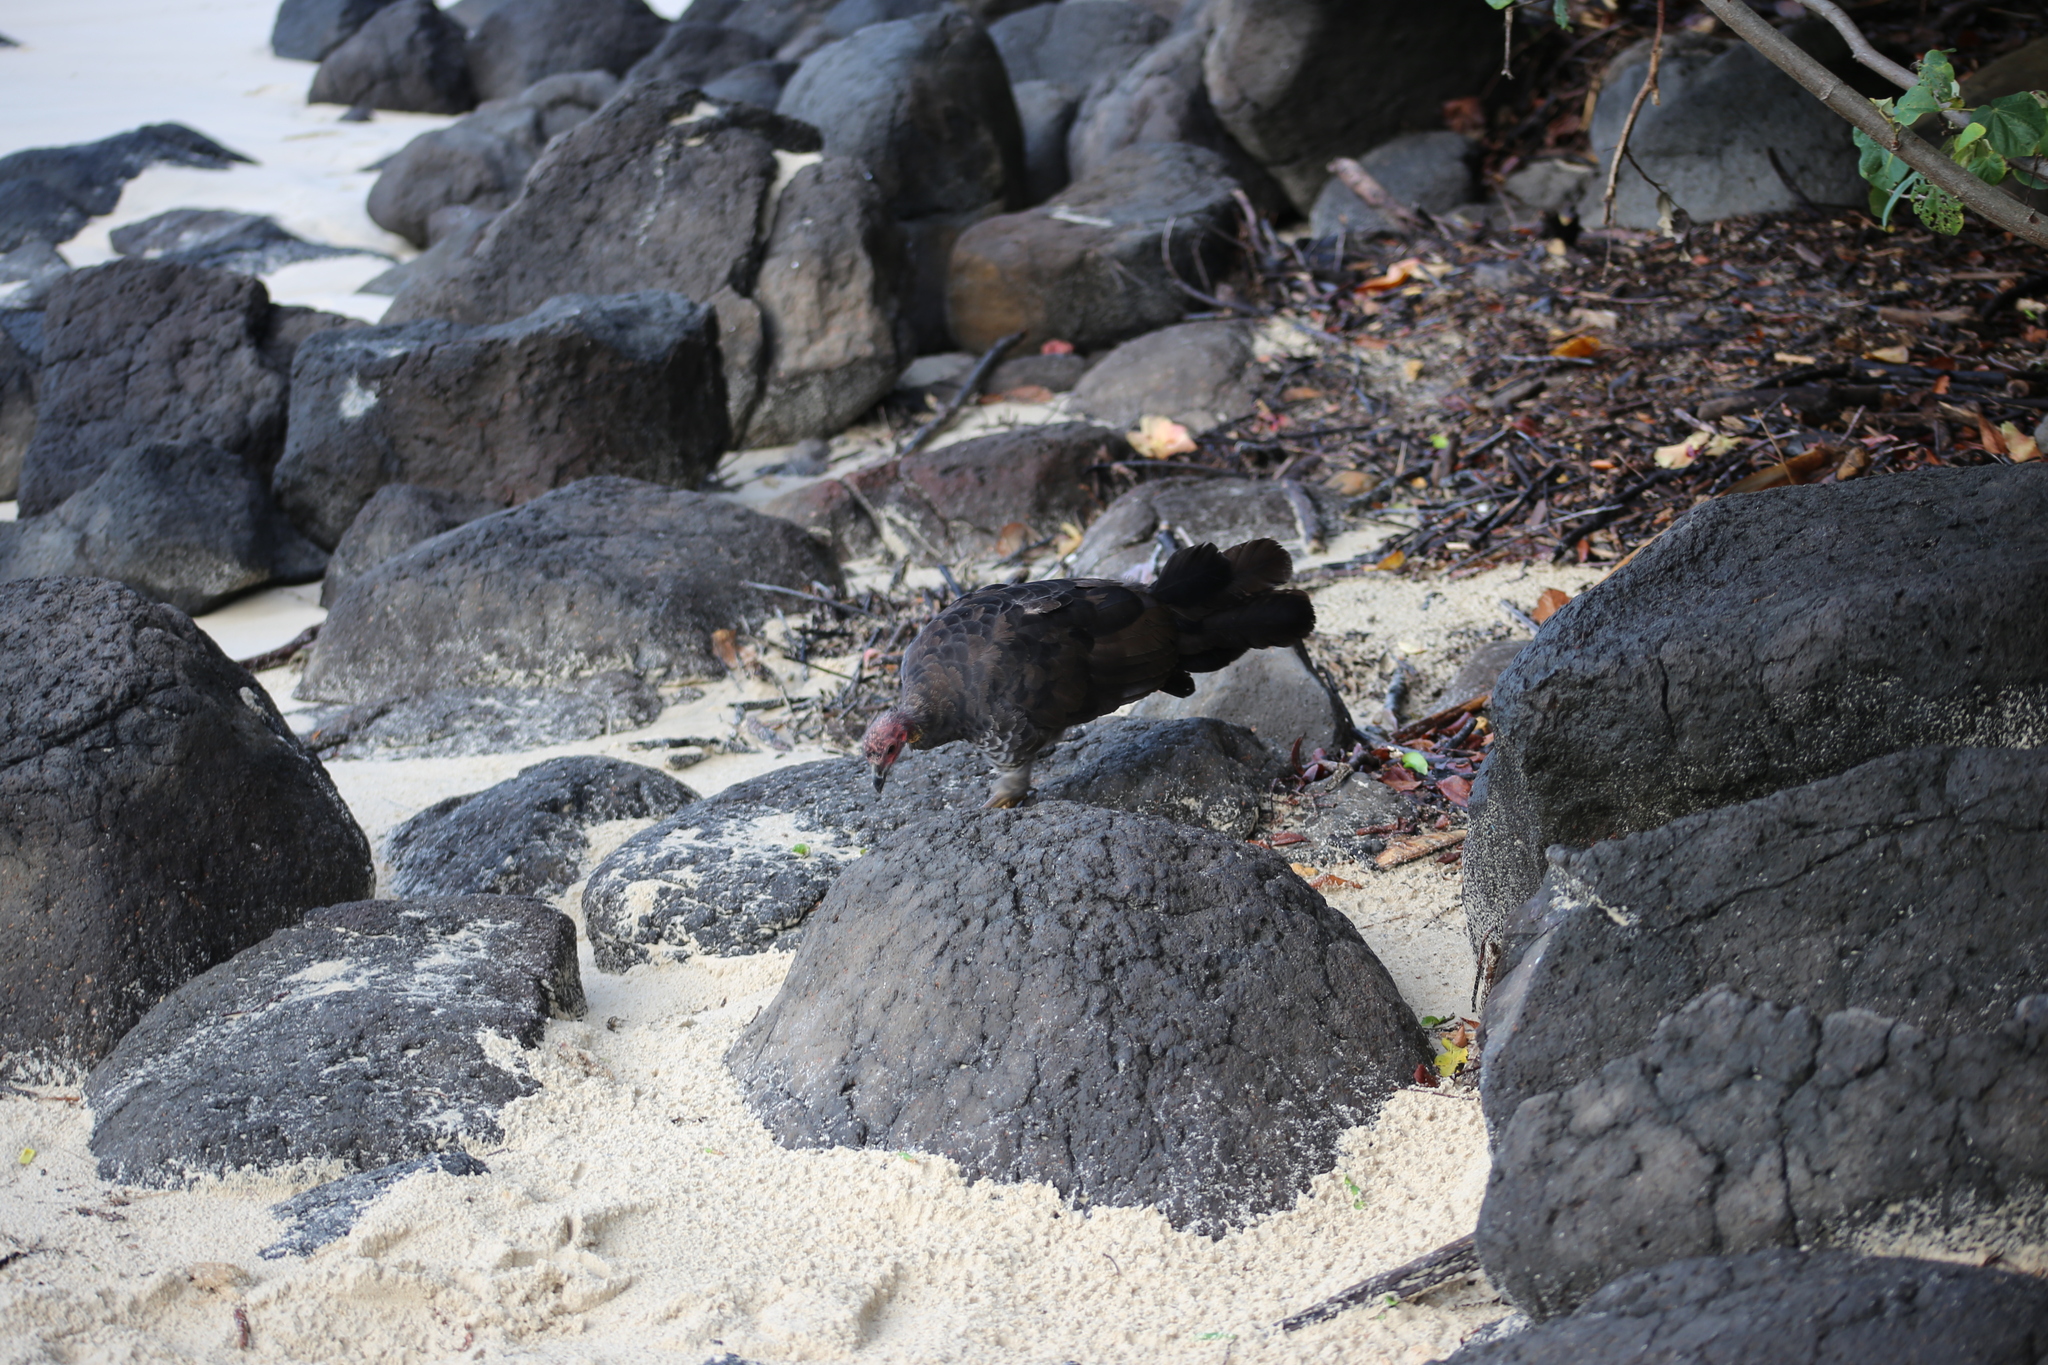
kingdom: Animalia
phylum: Chordata
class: Aves
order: Galliformes
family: Megapodiidae
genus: Alectura
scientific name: Alectura lathami
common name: Australian brushturkey
